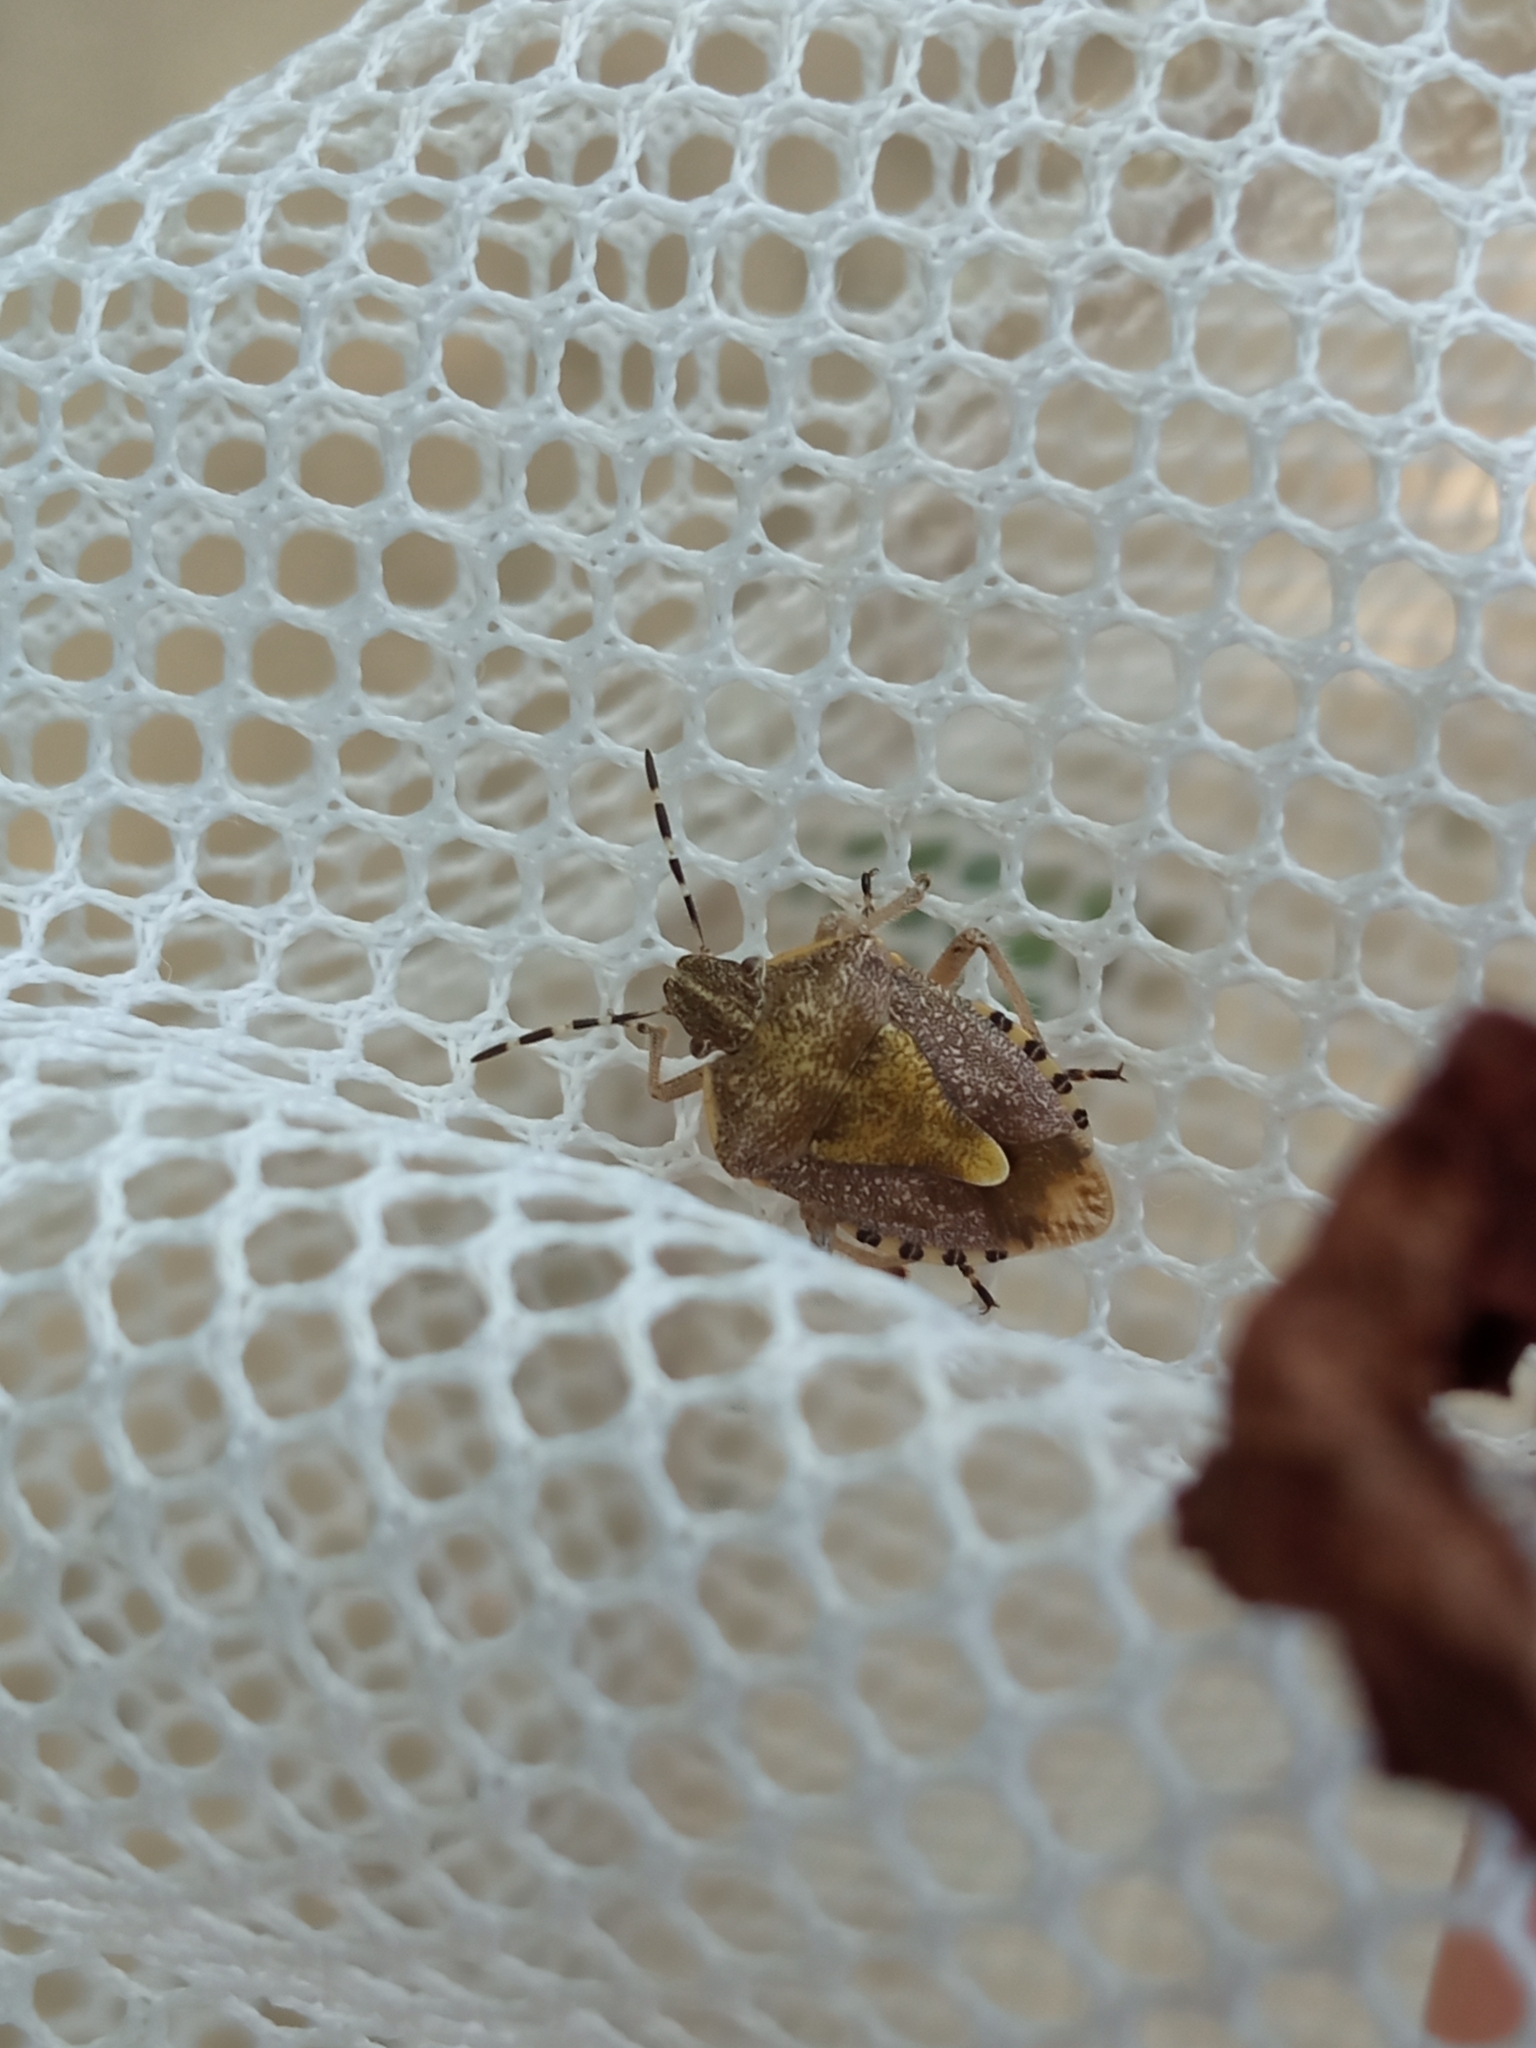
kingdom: Animalia
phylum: Arthropoda
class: Insecta
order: Hemiptera
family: Pentatomidae
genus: Dolycoris
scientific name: Dolycoris baccarum
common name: Sloe bug
